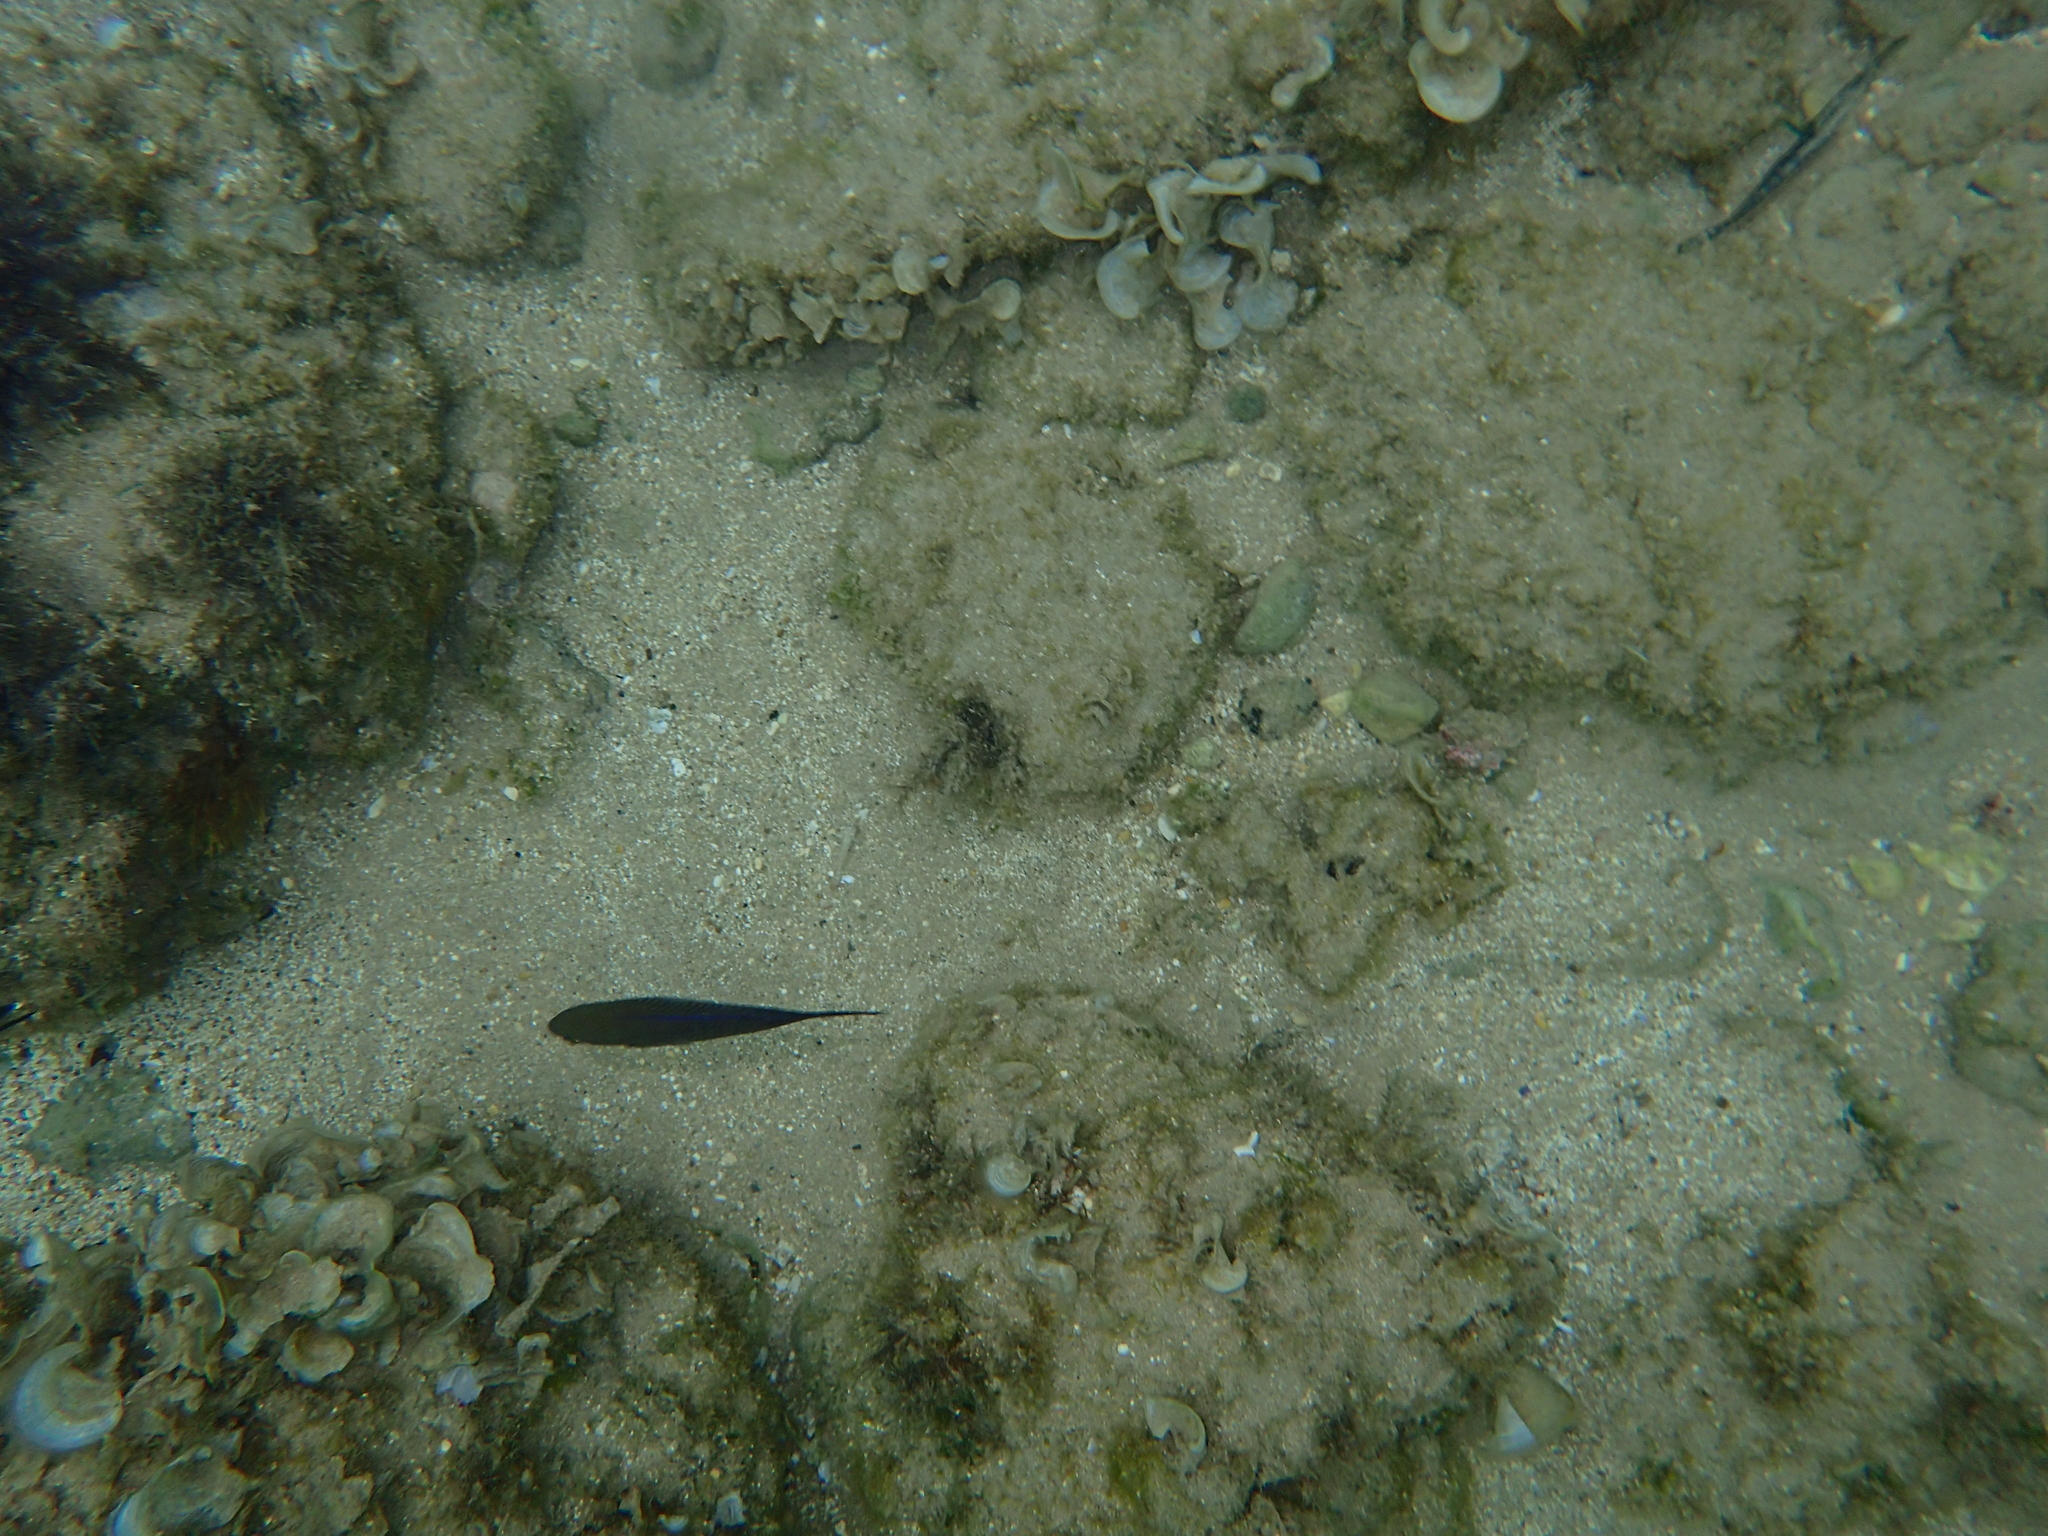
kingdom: Animalia
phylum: Chordata
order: Perciformes
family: Pomacentridae
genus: Chromis
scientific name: Chromis chromis
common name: Damselfish
